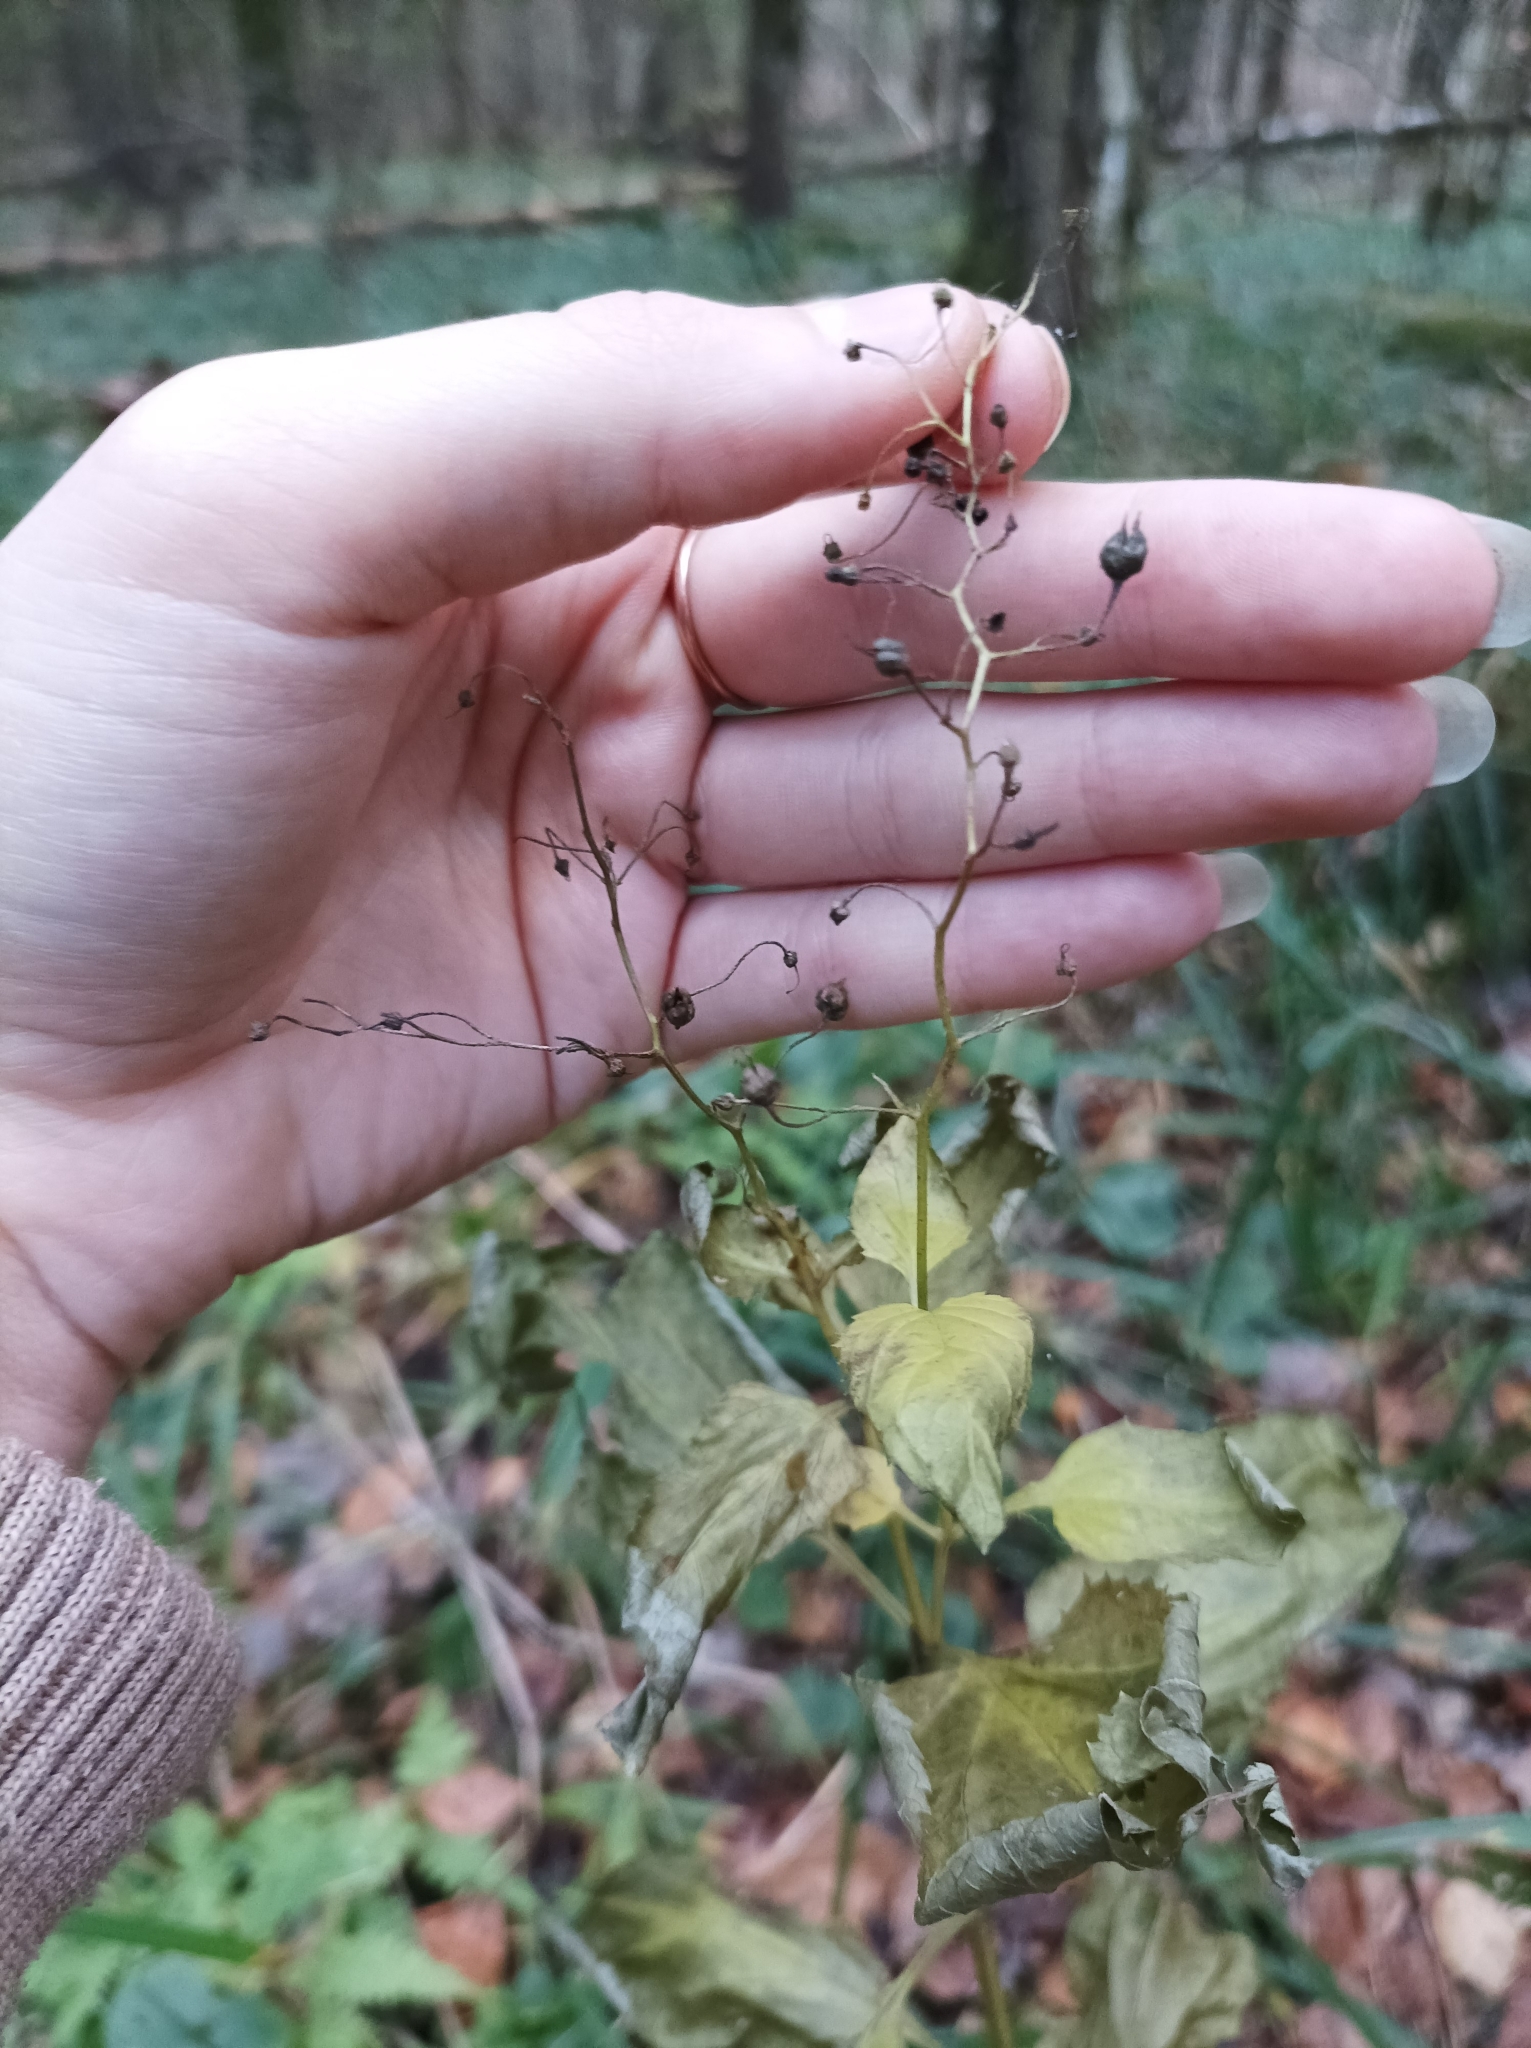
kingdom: Plantae
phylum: Tracheophyta
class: Magnoliopsida
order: Lamiales
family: Scrophulariaceae
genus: Scrophularia
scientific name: Scrophularia nodosa
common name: Common figwort
